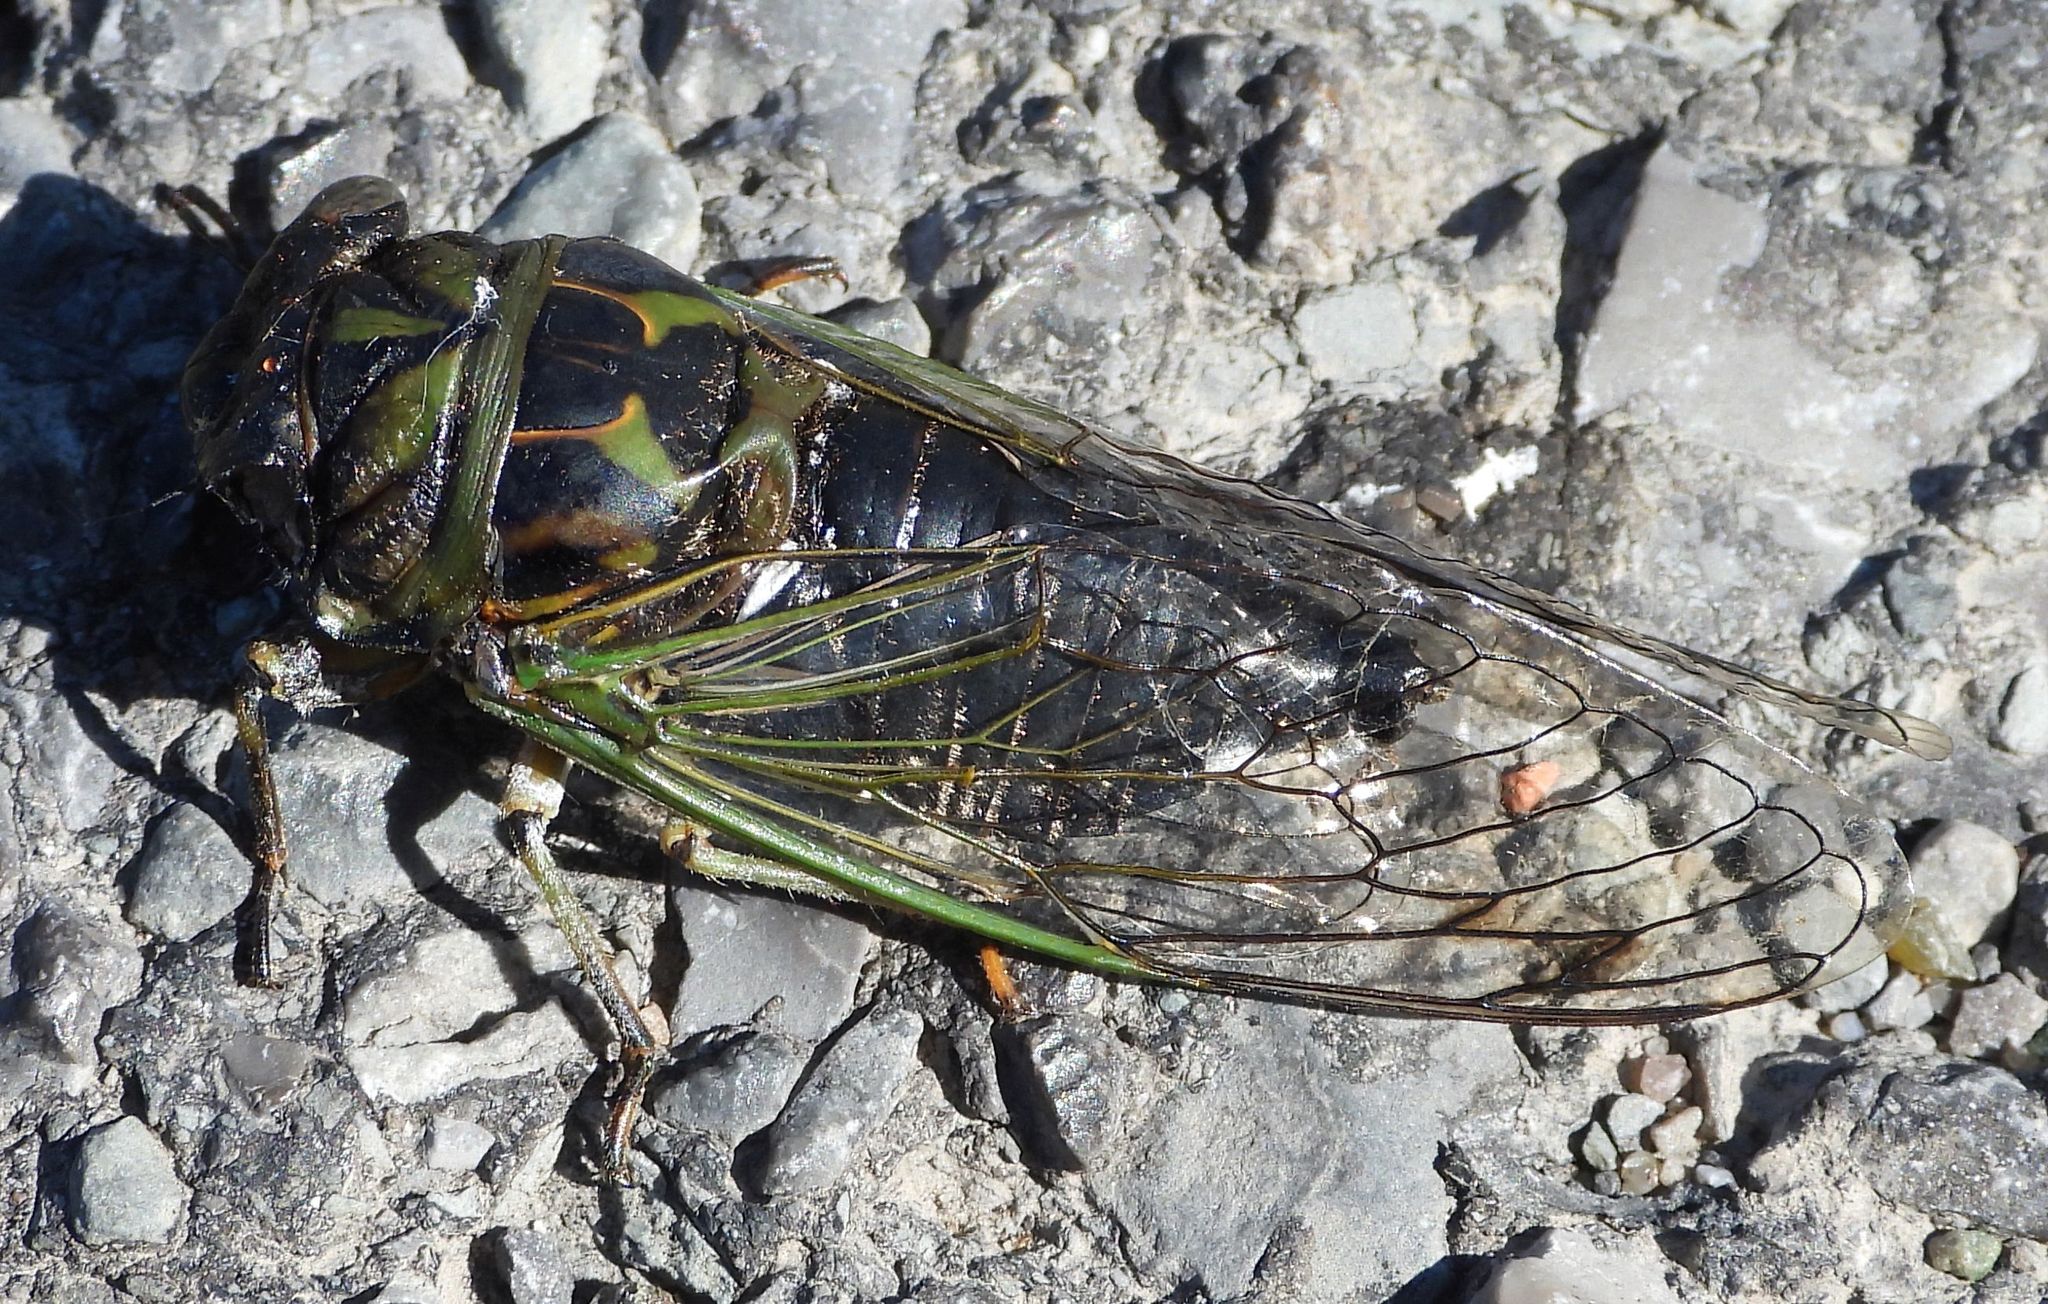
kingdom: Animalia
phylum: Arthropoda
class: Insecta
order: Hemiptera
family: Cicadidae
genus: Neotibicen
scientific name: Neotibicen canicularis
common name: God-day cicada
